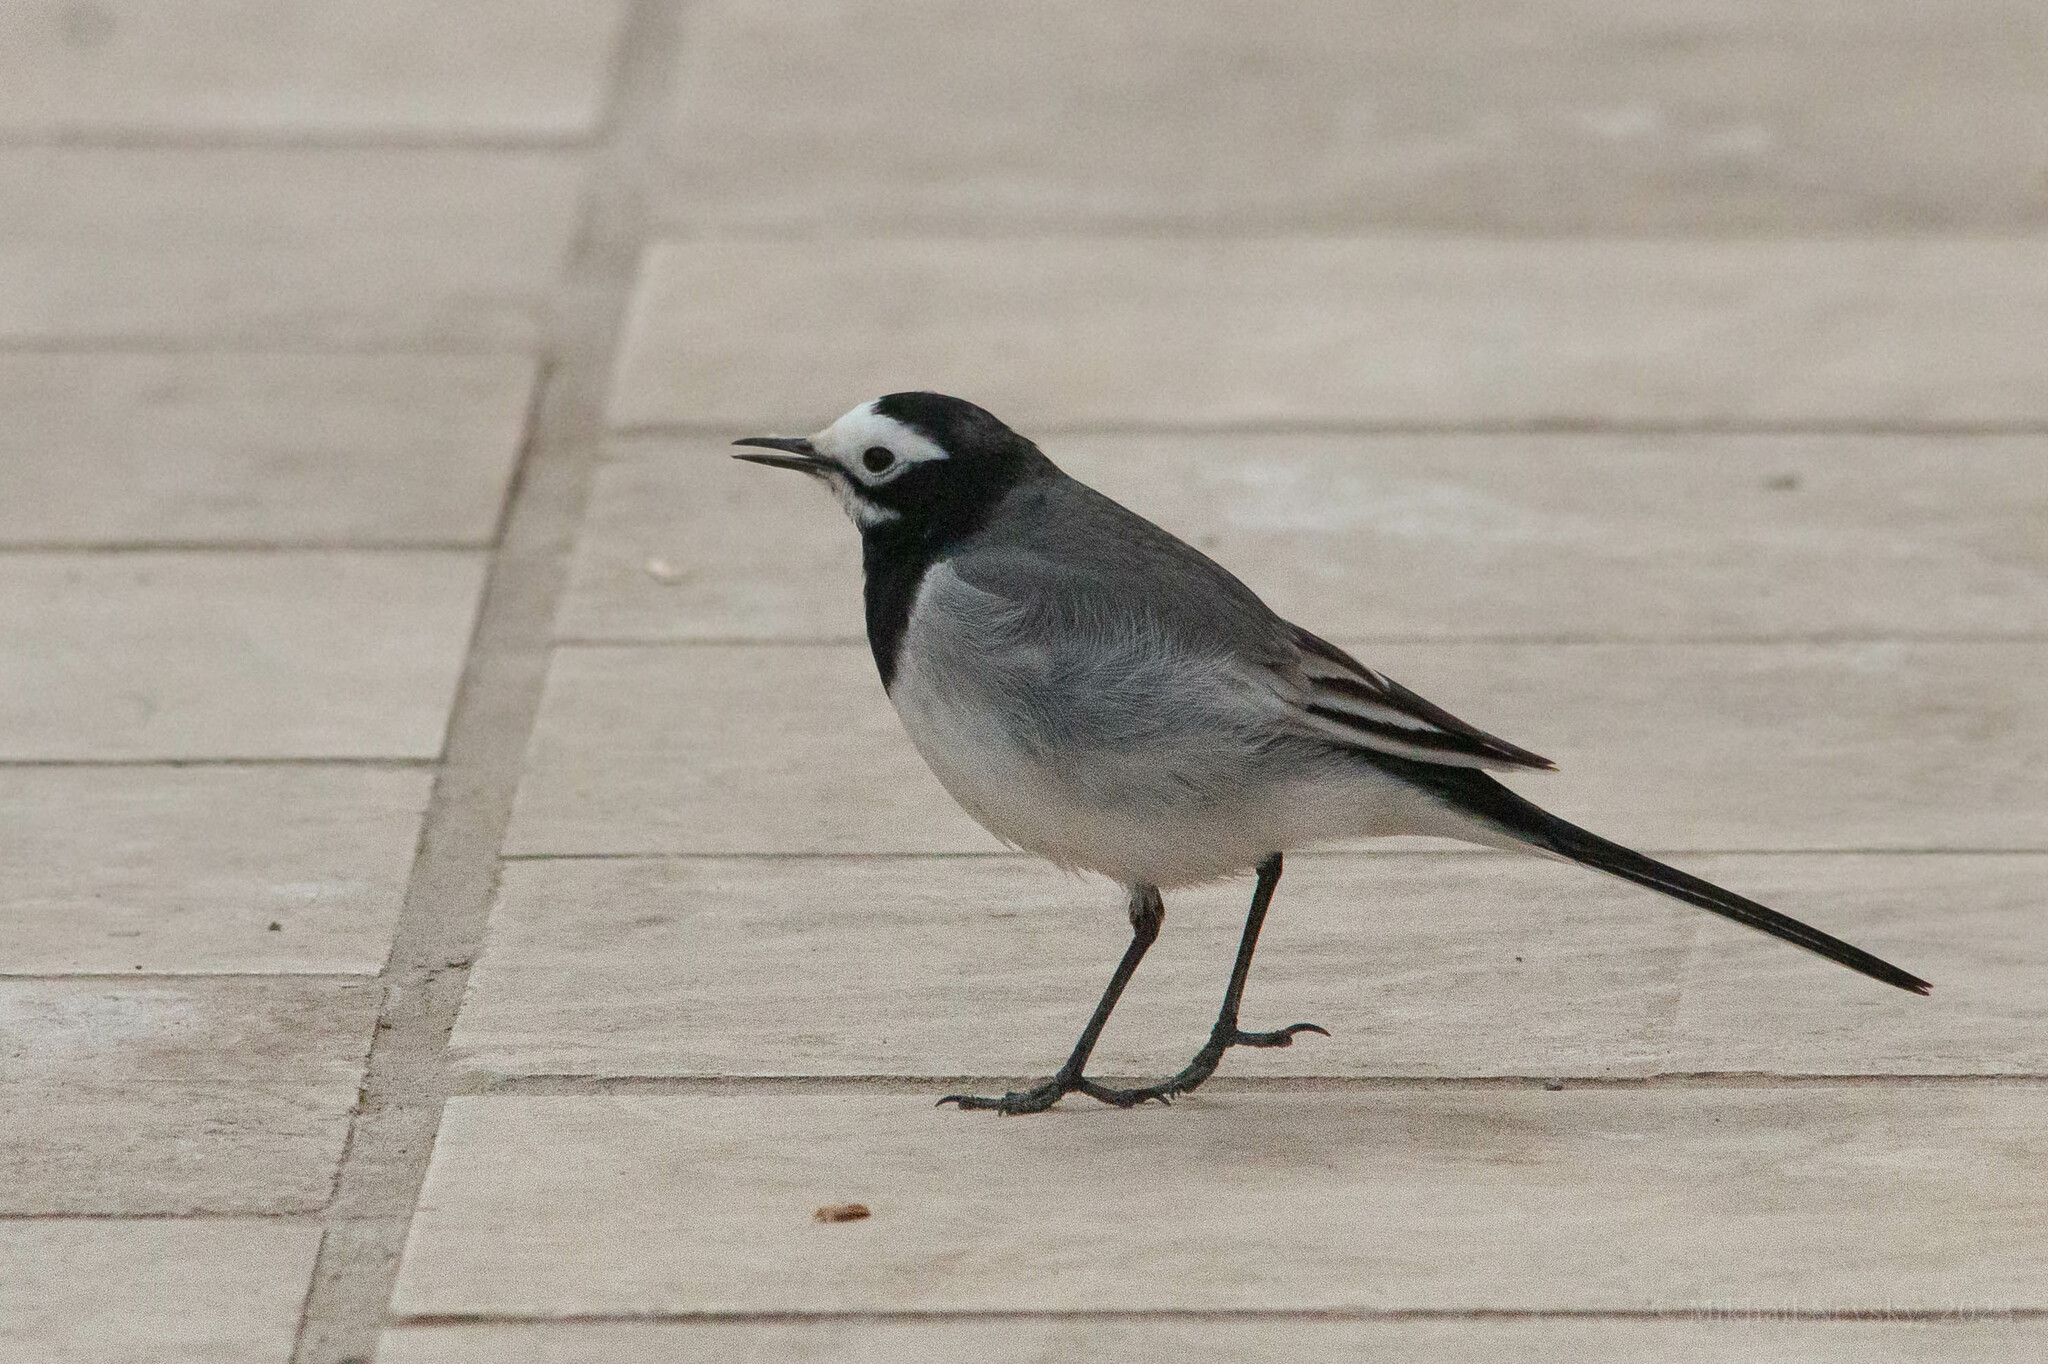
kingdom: Animalia
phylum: Chordata
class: Aves
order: Passeriformes
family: Motacillidae
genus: Motacilla
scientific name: Motacilla alba
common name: White wagtail
